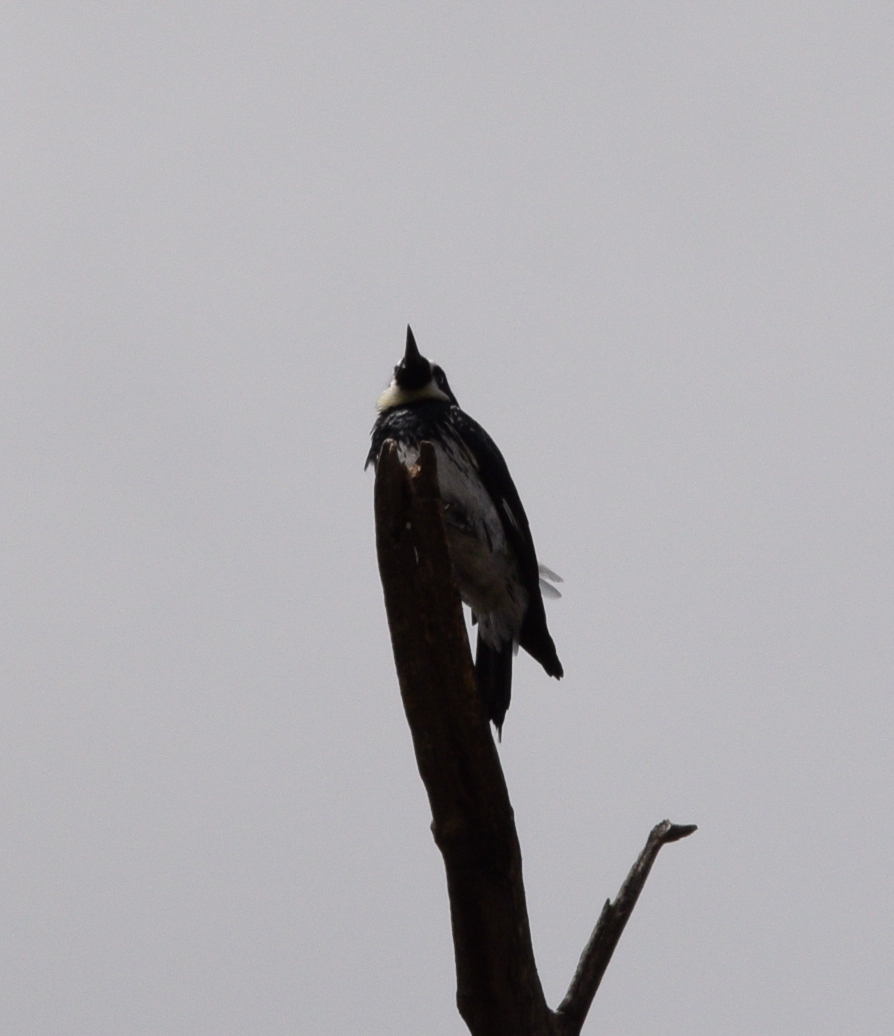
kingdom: Animalia
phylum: Chordata
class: Aves
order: Piciformes
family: Picidae
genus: Melanerpes
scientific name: Melanerpes formicivorus
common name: Acorn woodpecker
